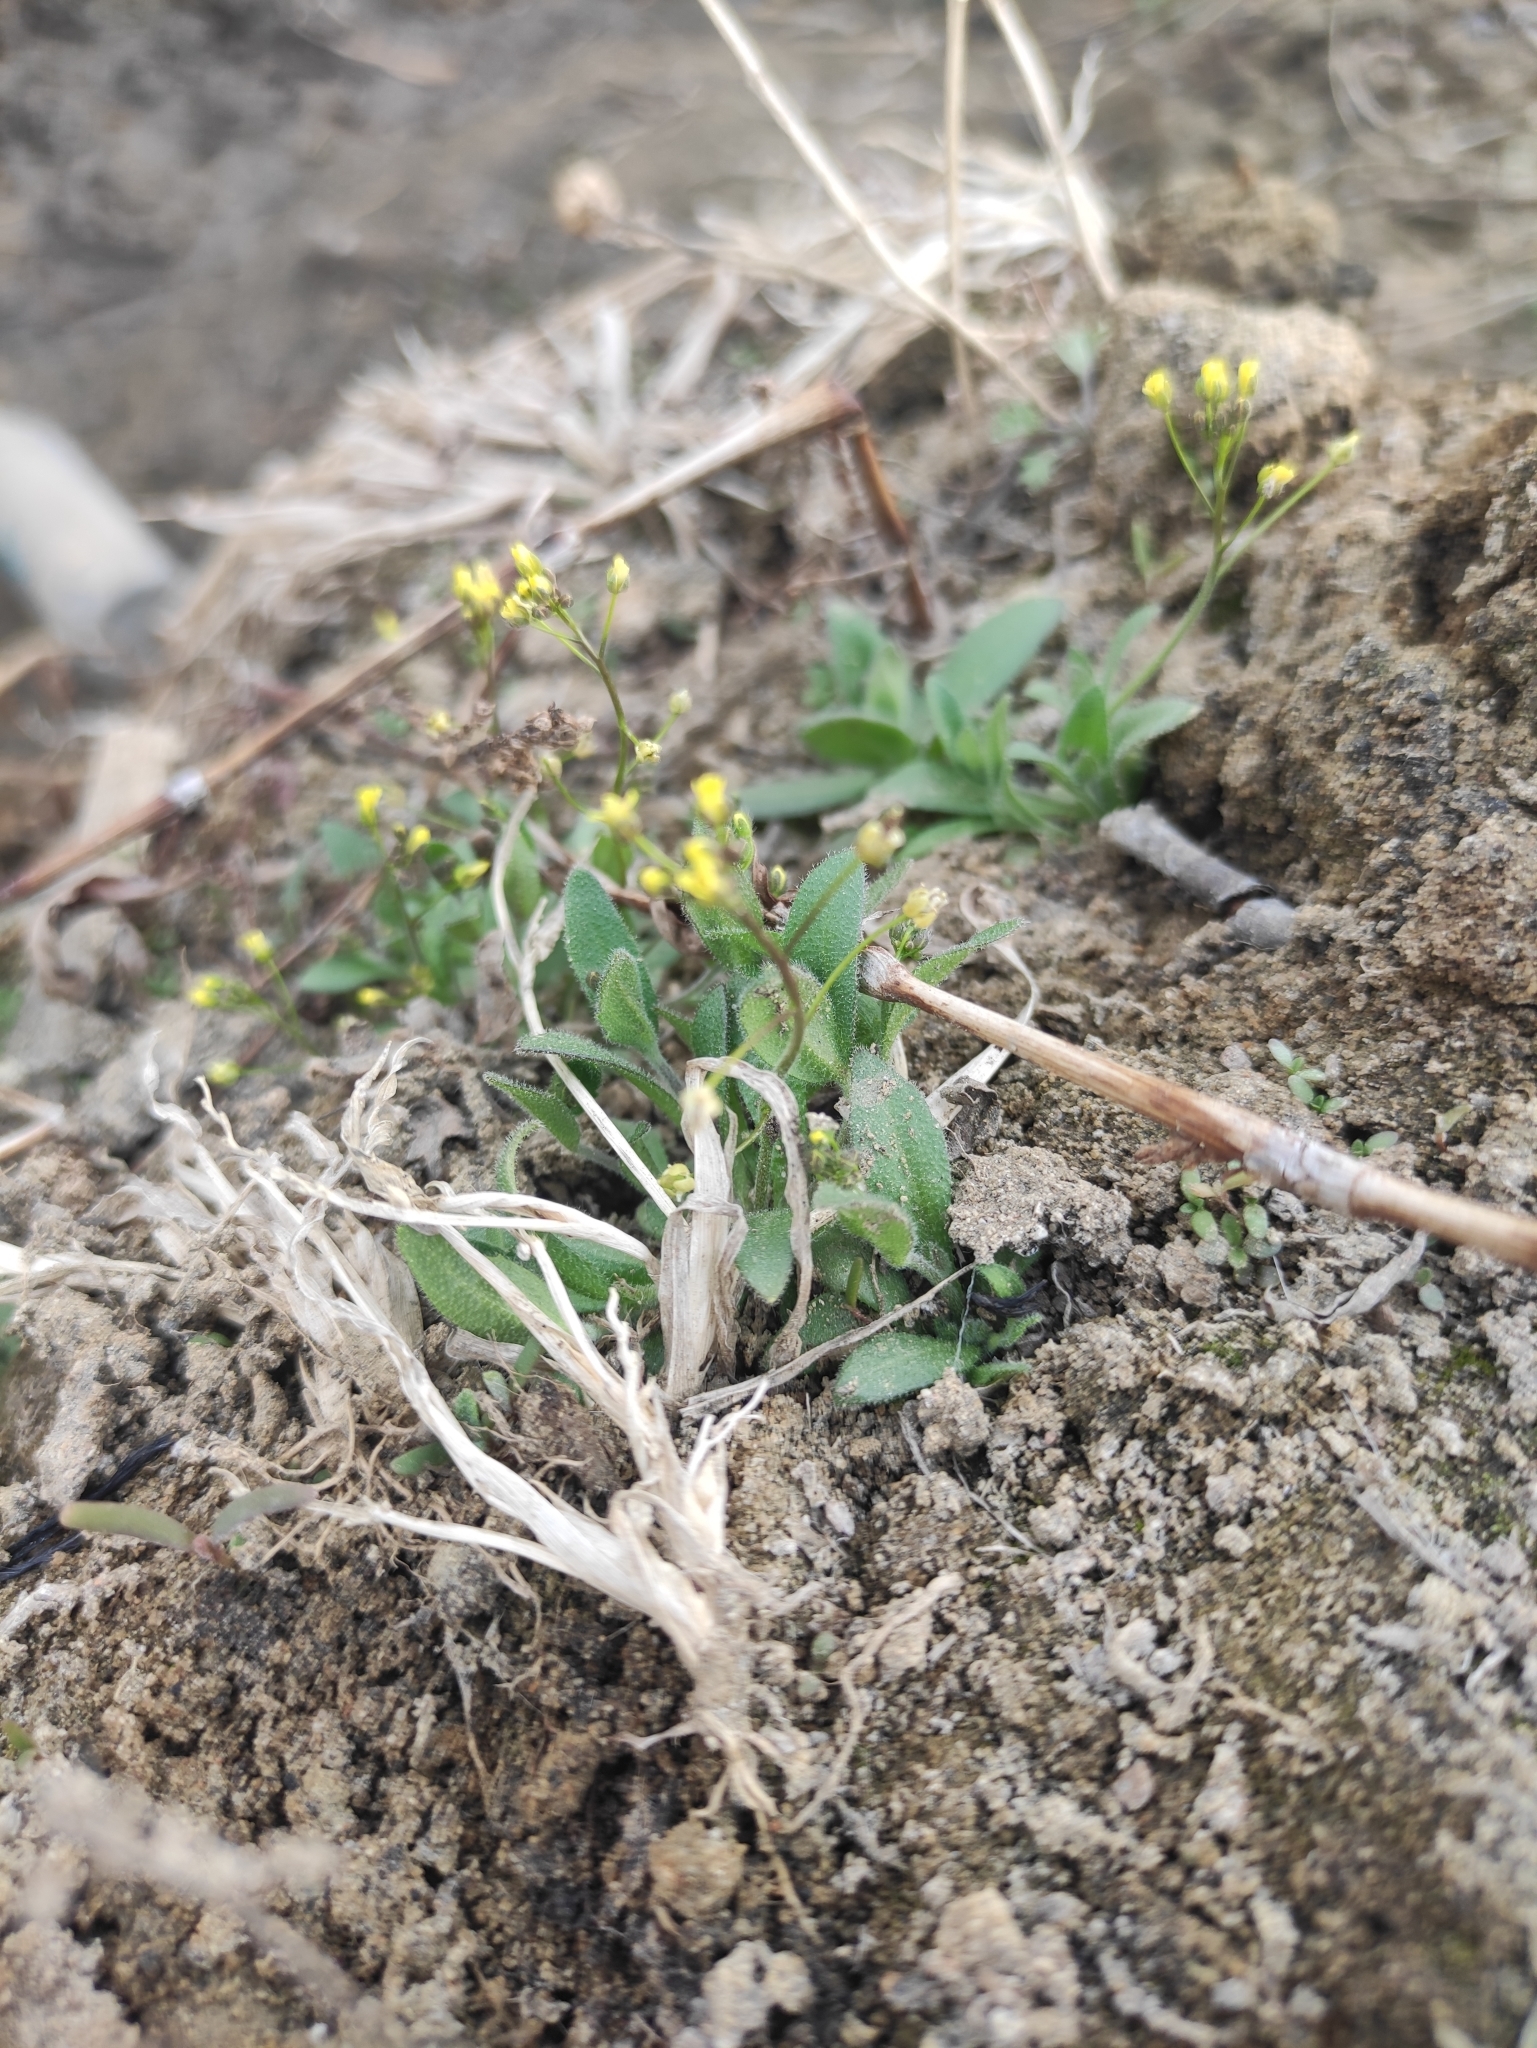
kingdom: Plantae
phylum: Tracheophyta
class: Magnoliopsida
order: Brassicales
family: Brassicaceae
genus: Draba
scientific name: Draba nemorosa
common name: Wood whitlow-grass
